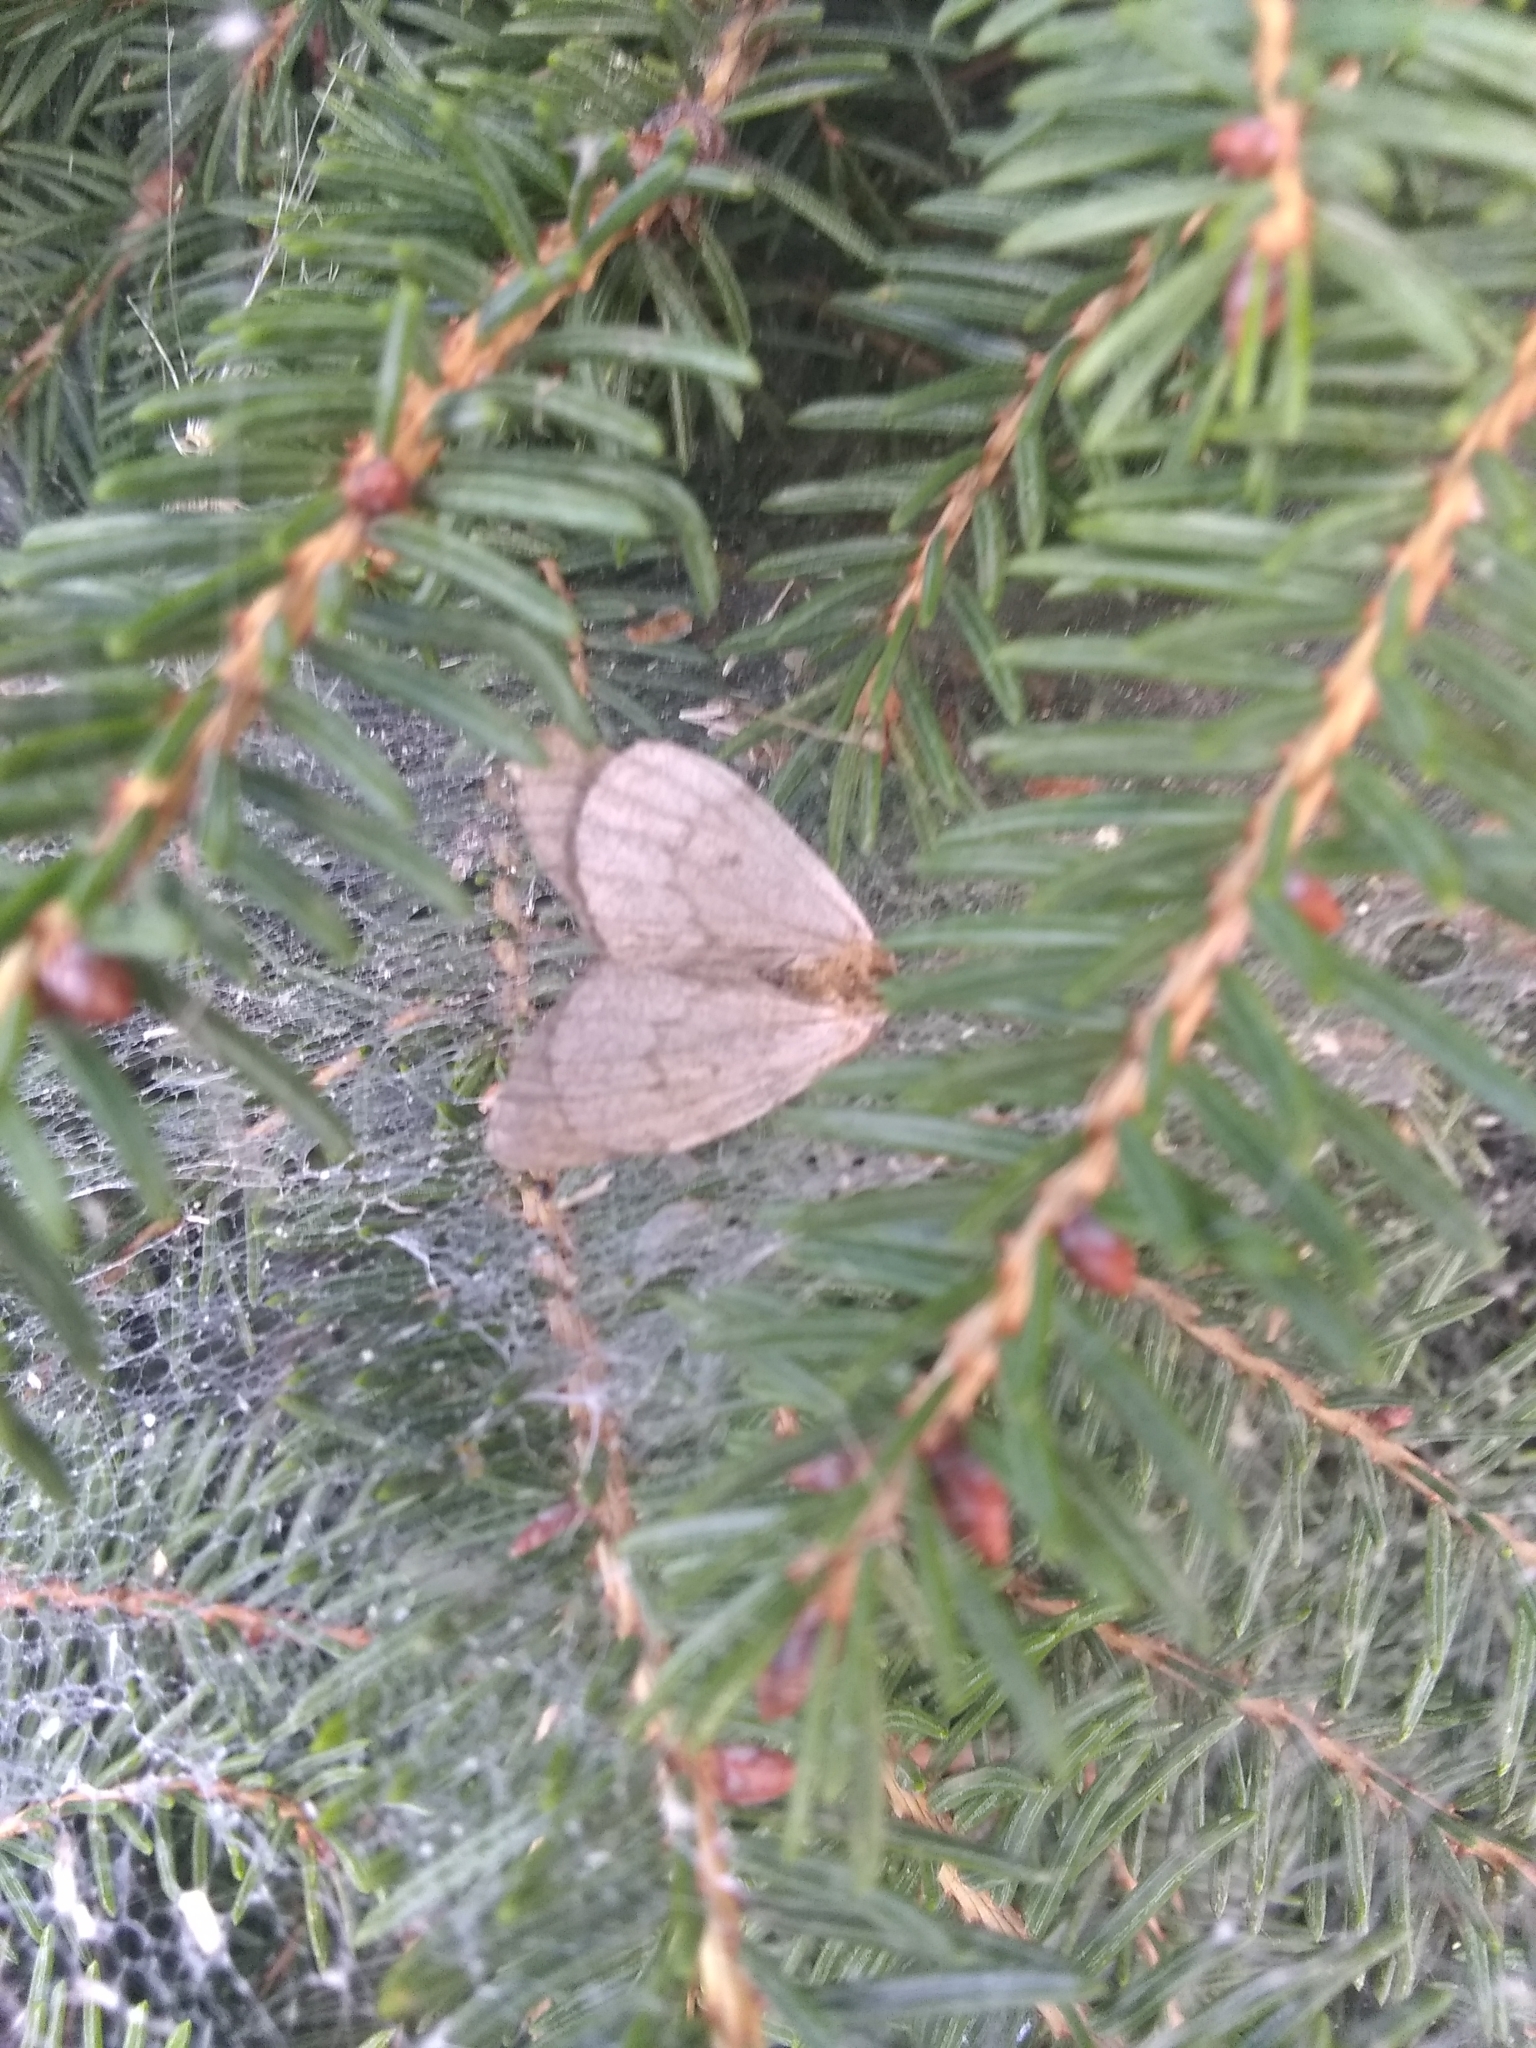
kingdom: Animalia
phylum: Arthropoda
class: Insecta
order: Lepidoptera
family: Geometridae
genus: Operophtera
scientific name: Operophtera bruceata
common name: Bruce spanworm
